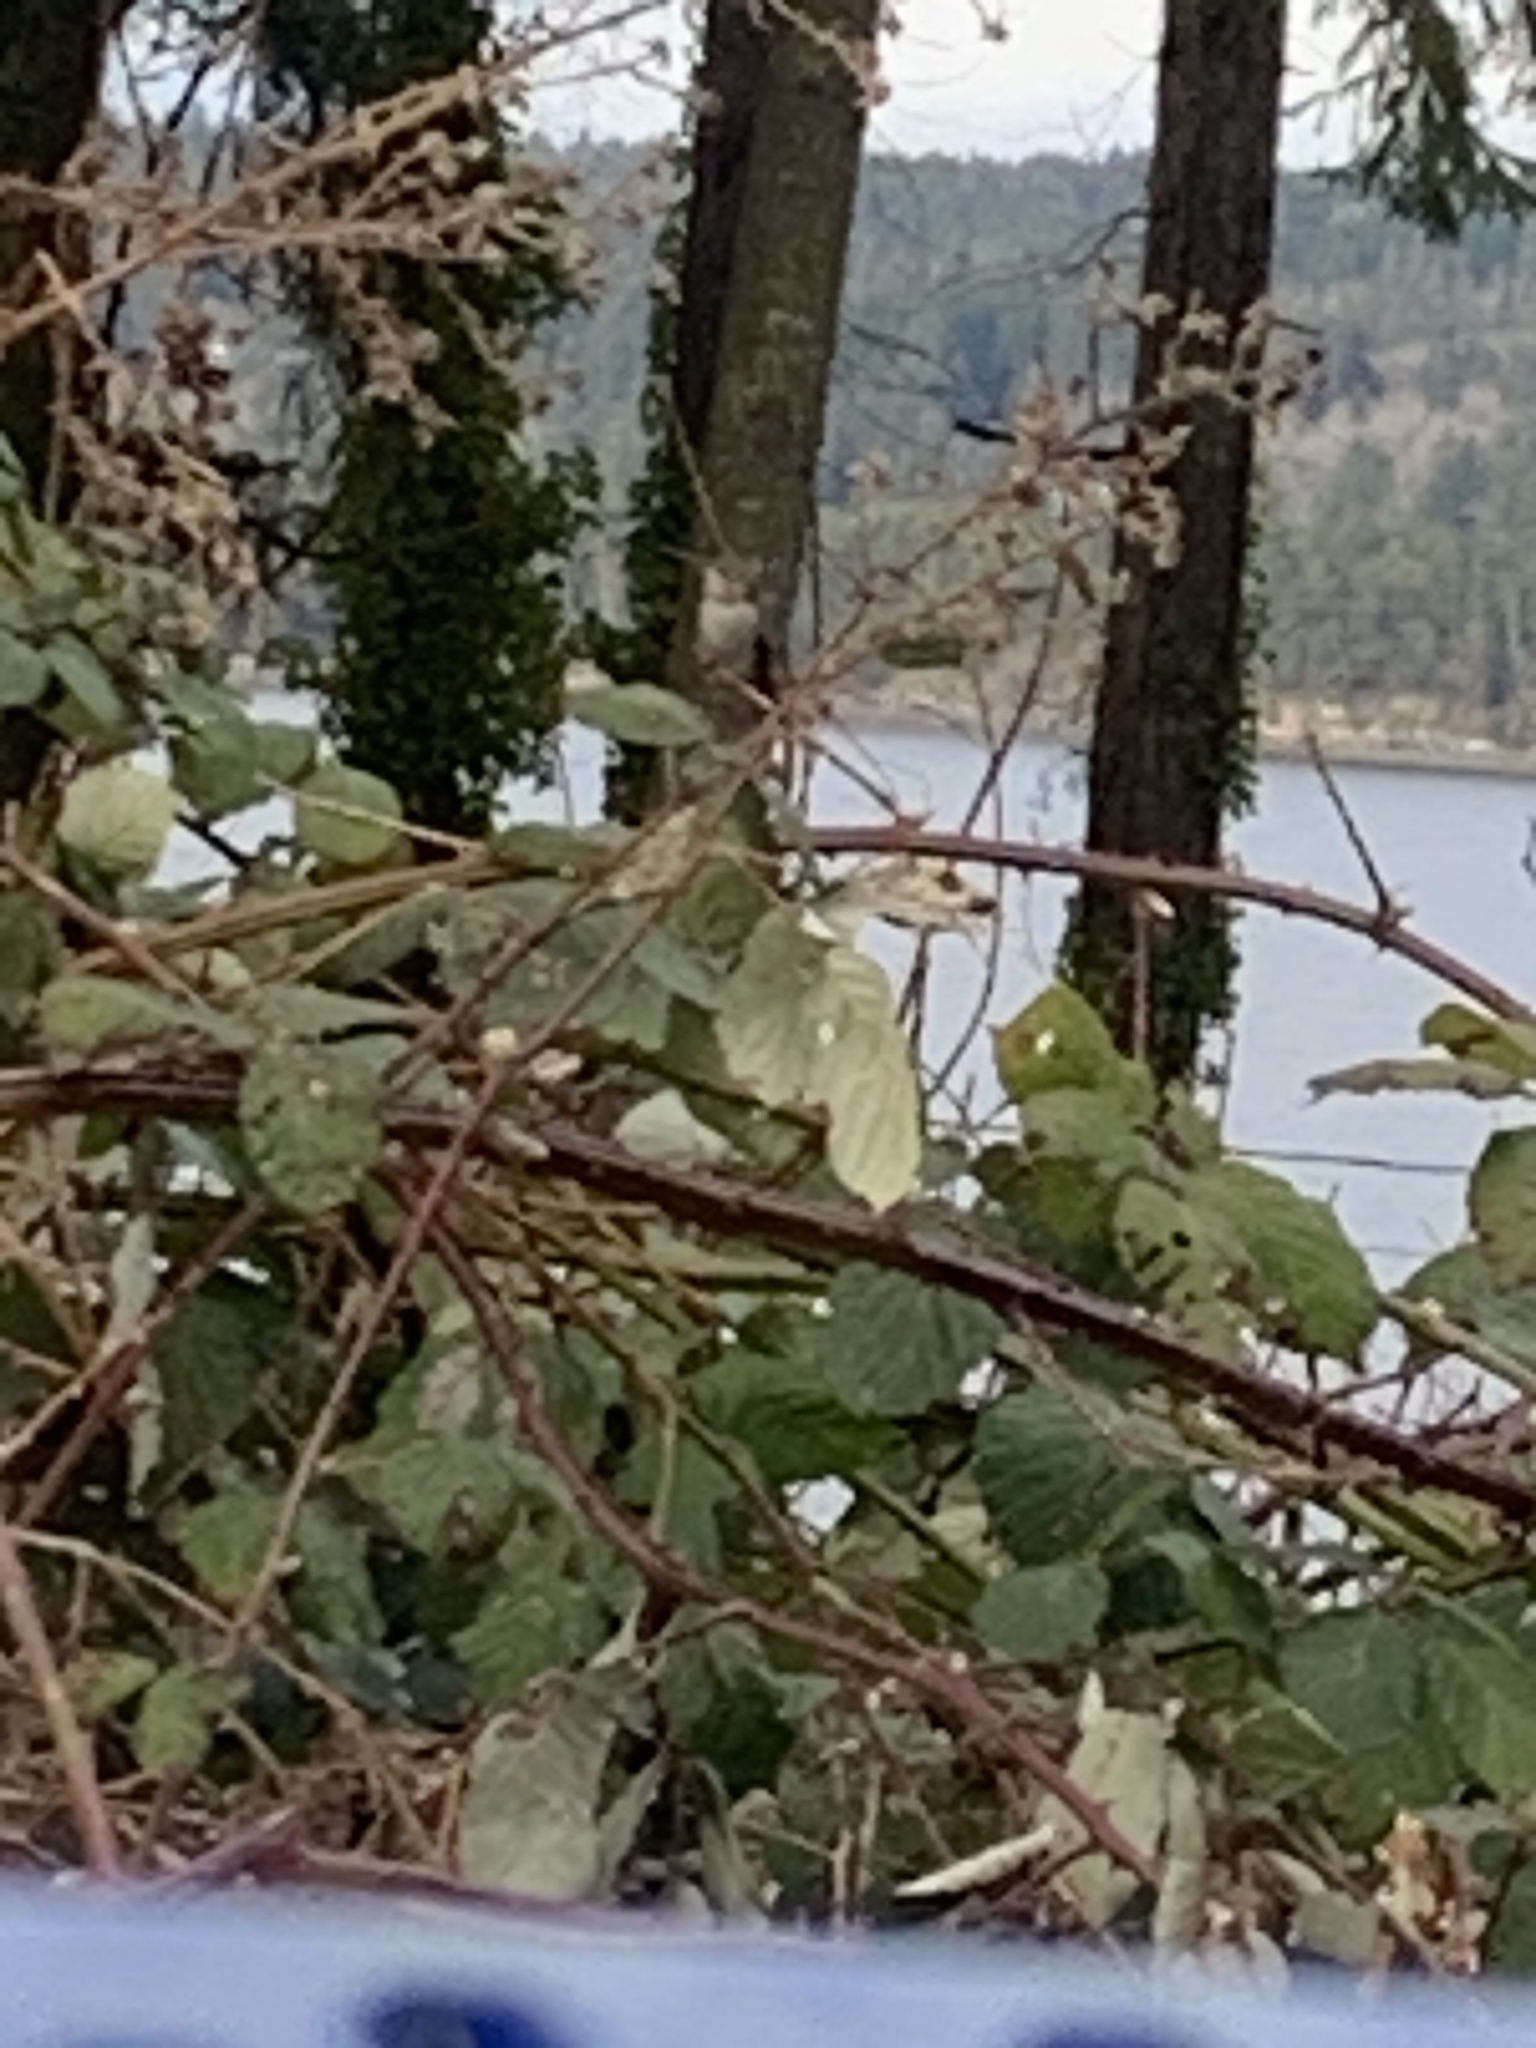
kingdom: Animalia
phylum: Chordata
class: Aves
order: Apodiformes
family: Trochilidae
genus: Calypte
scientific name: Calypte anna
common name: Anna's hummingbird
